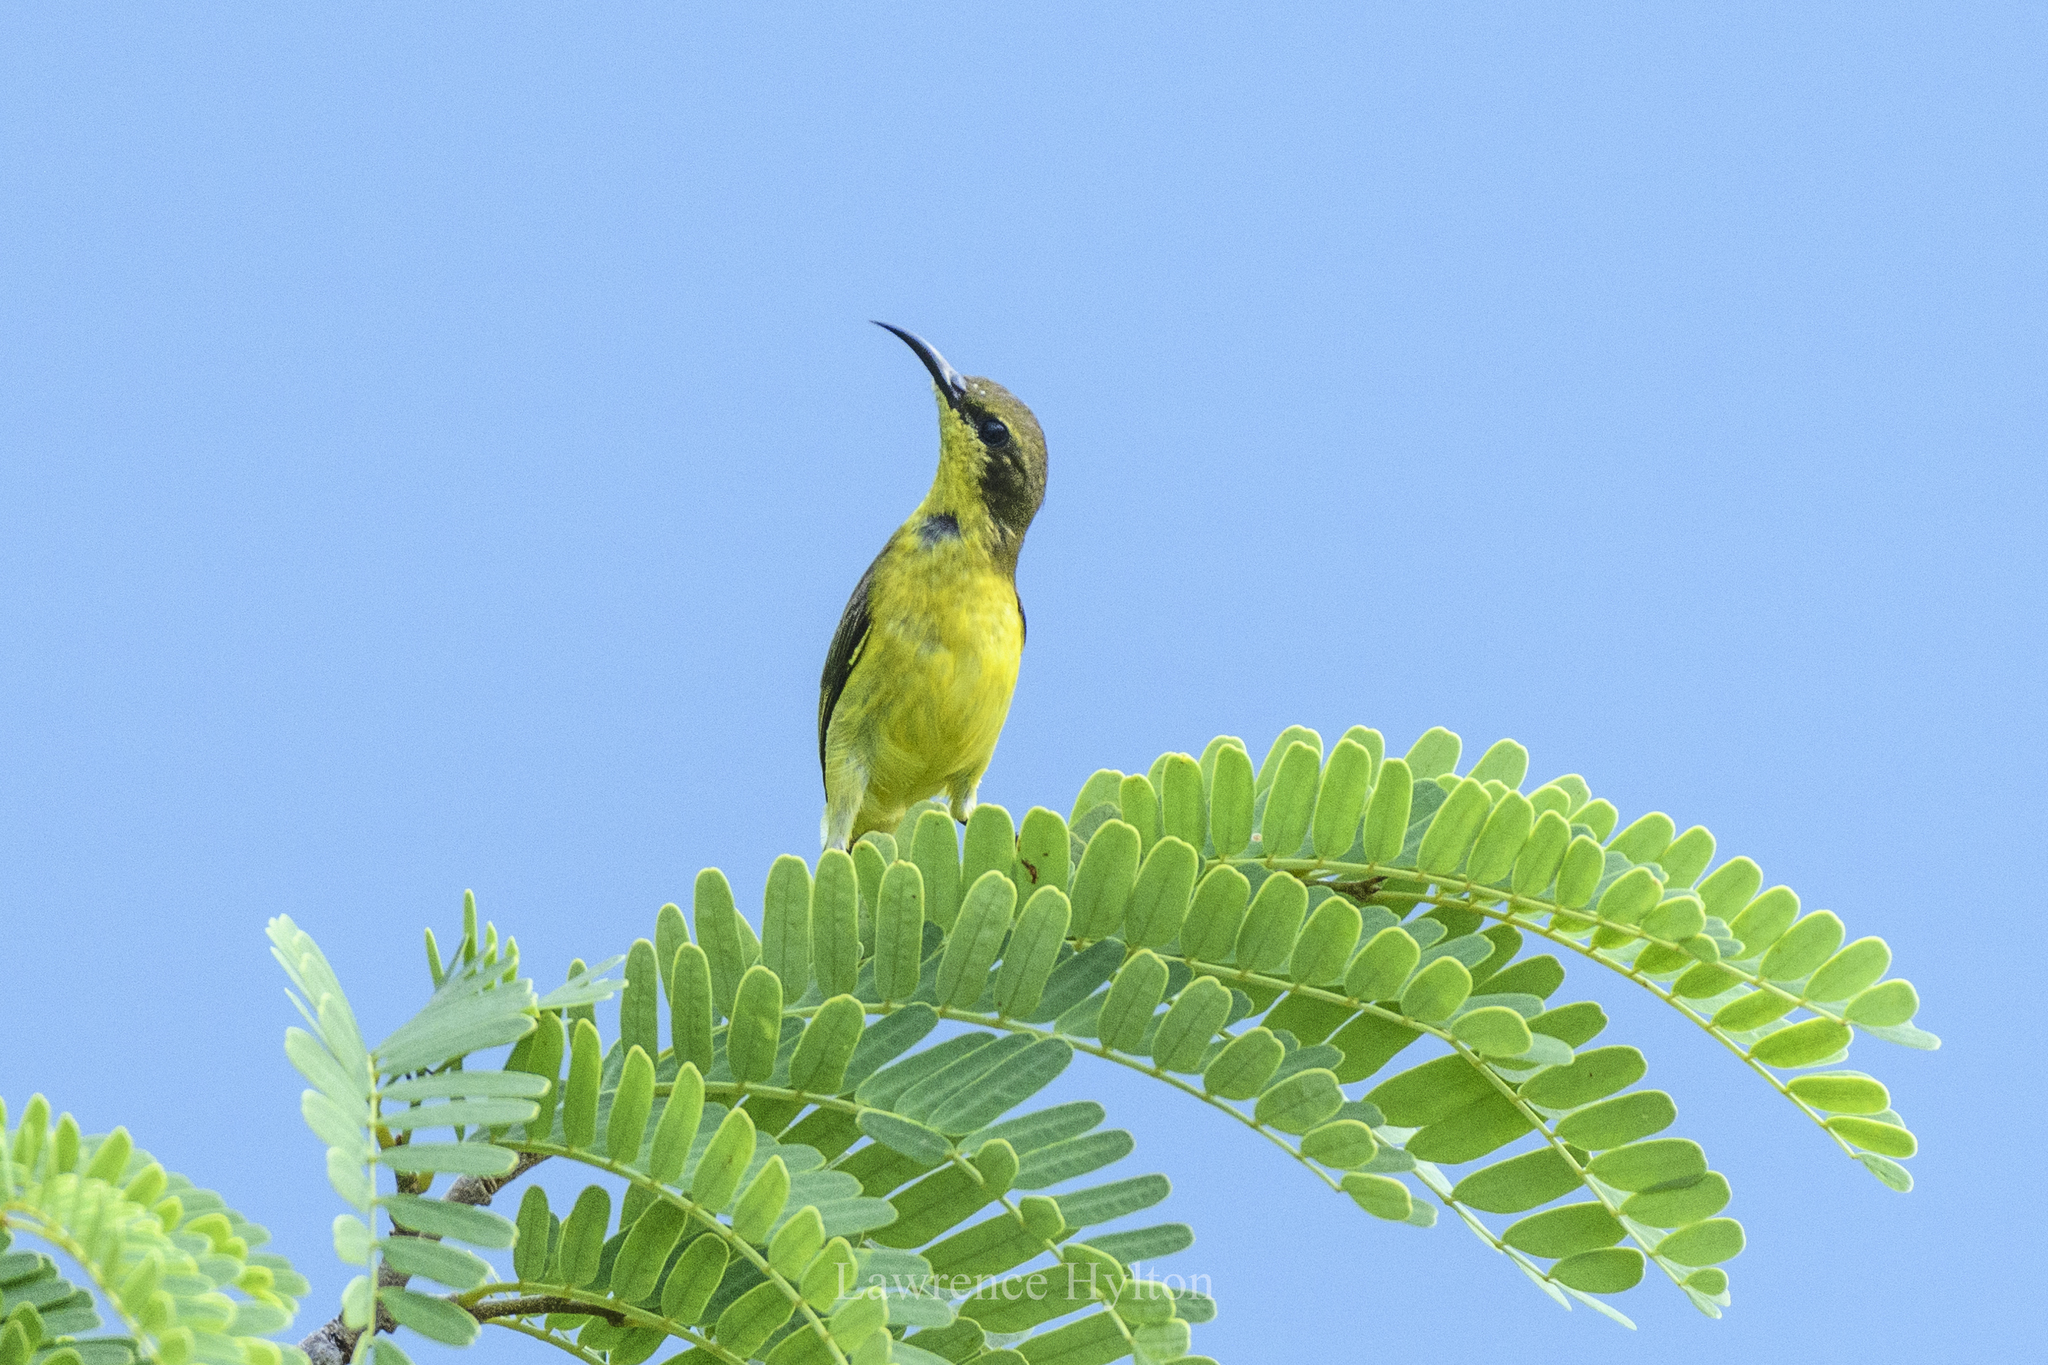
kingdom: Animalia
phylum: Chordata
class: Aves
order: Passeriformes
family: Nectariniidae
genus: Cinnyris
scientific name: Cinnyris
